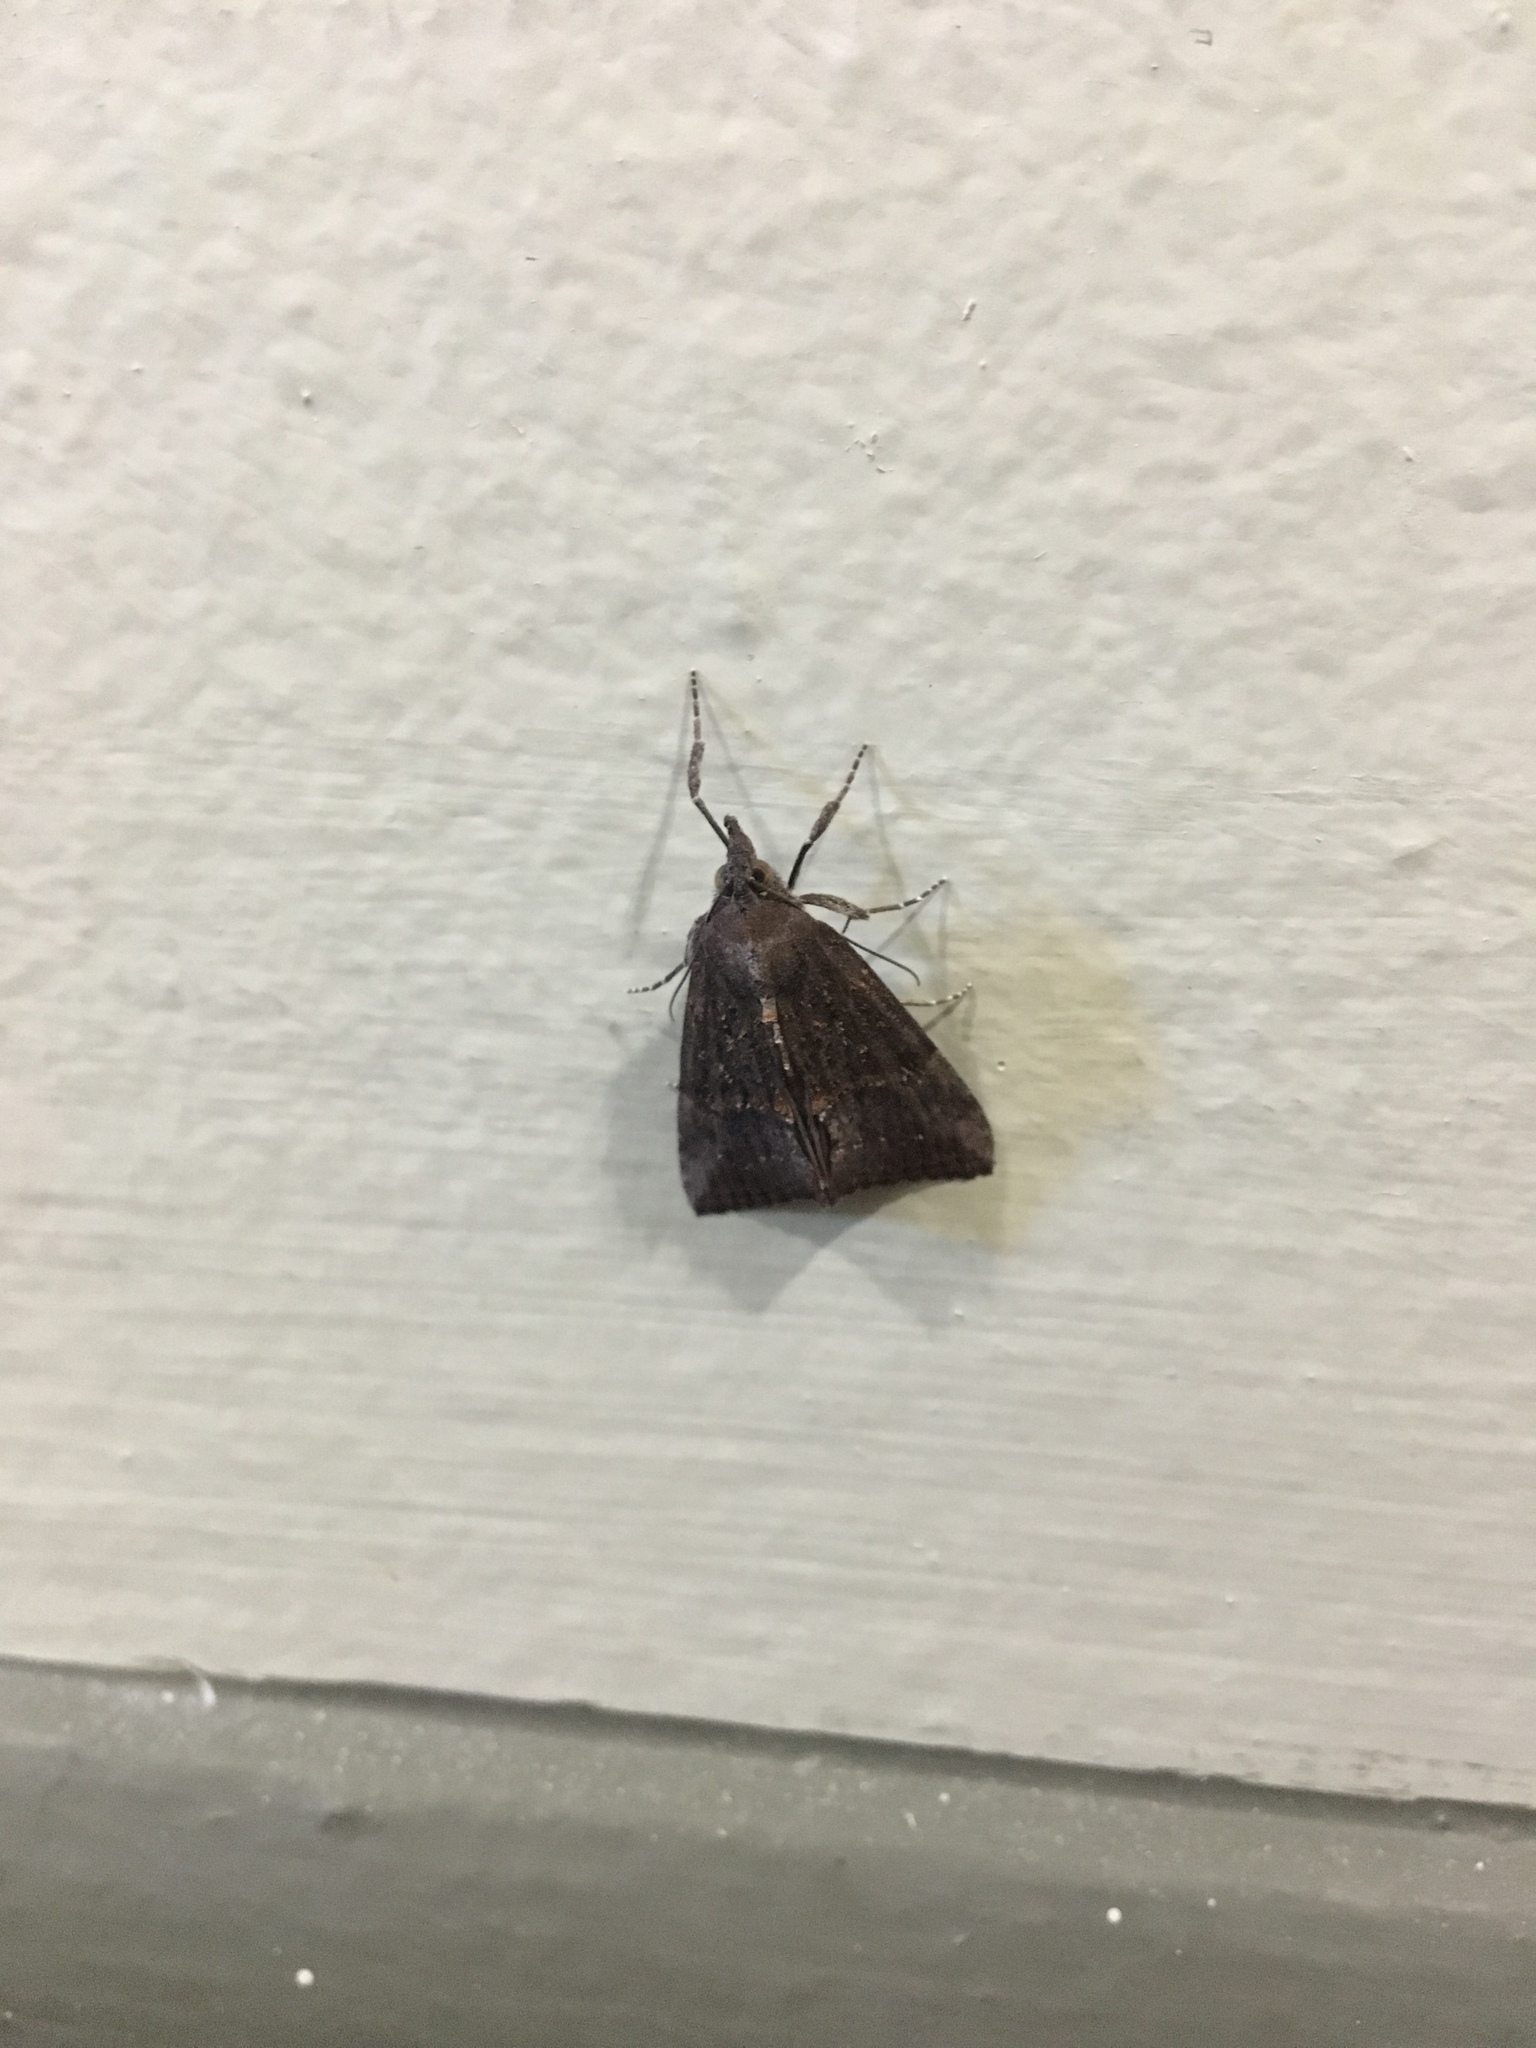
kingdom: Animalia
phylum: Arthropoda
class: Insecta
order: Lepidoptera
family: Erebidae
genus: Hypena
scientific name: Hypena scabra
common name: Green cloverworm
